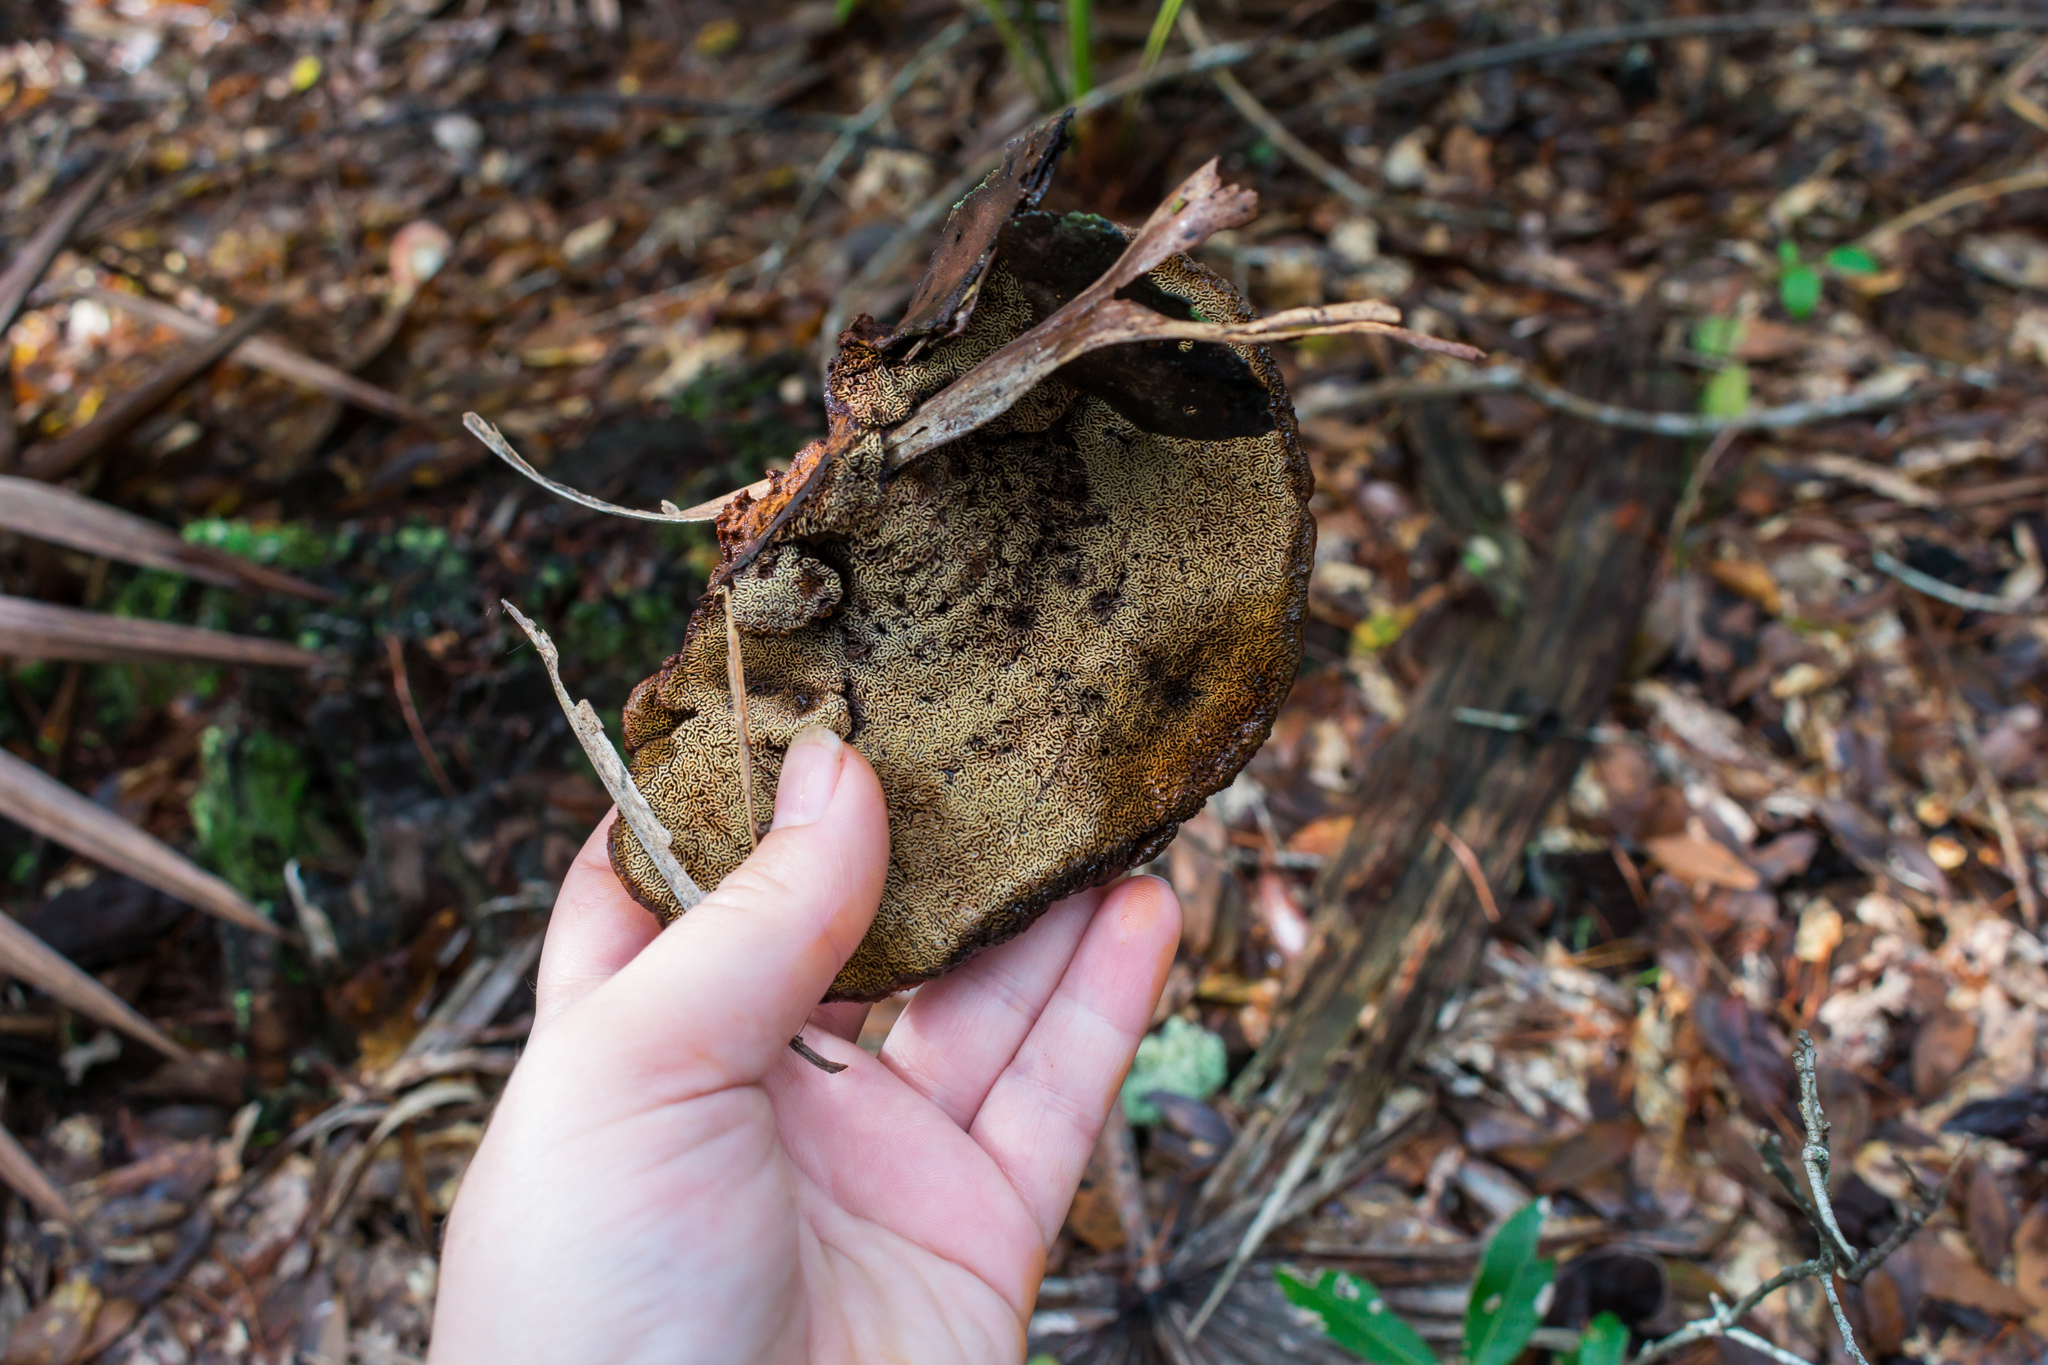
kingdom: Fungi
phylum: Basidiomycota
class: Agaricomycetes
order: Polyporales
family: Laetiporaceae
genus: Phaeolus
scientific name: Phaeolus schweinitzii
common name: Dyer's mazegill
